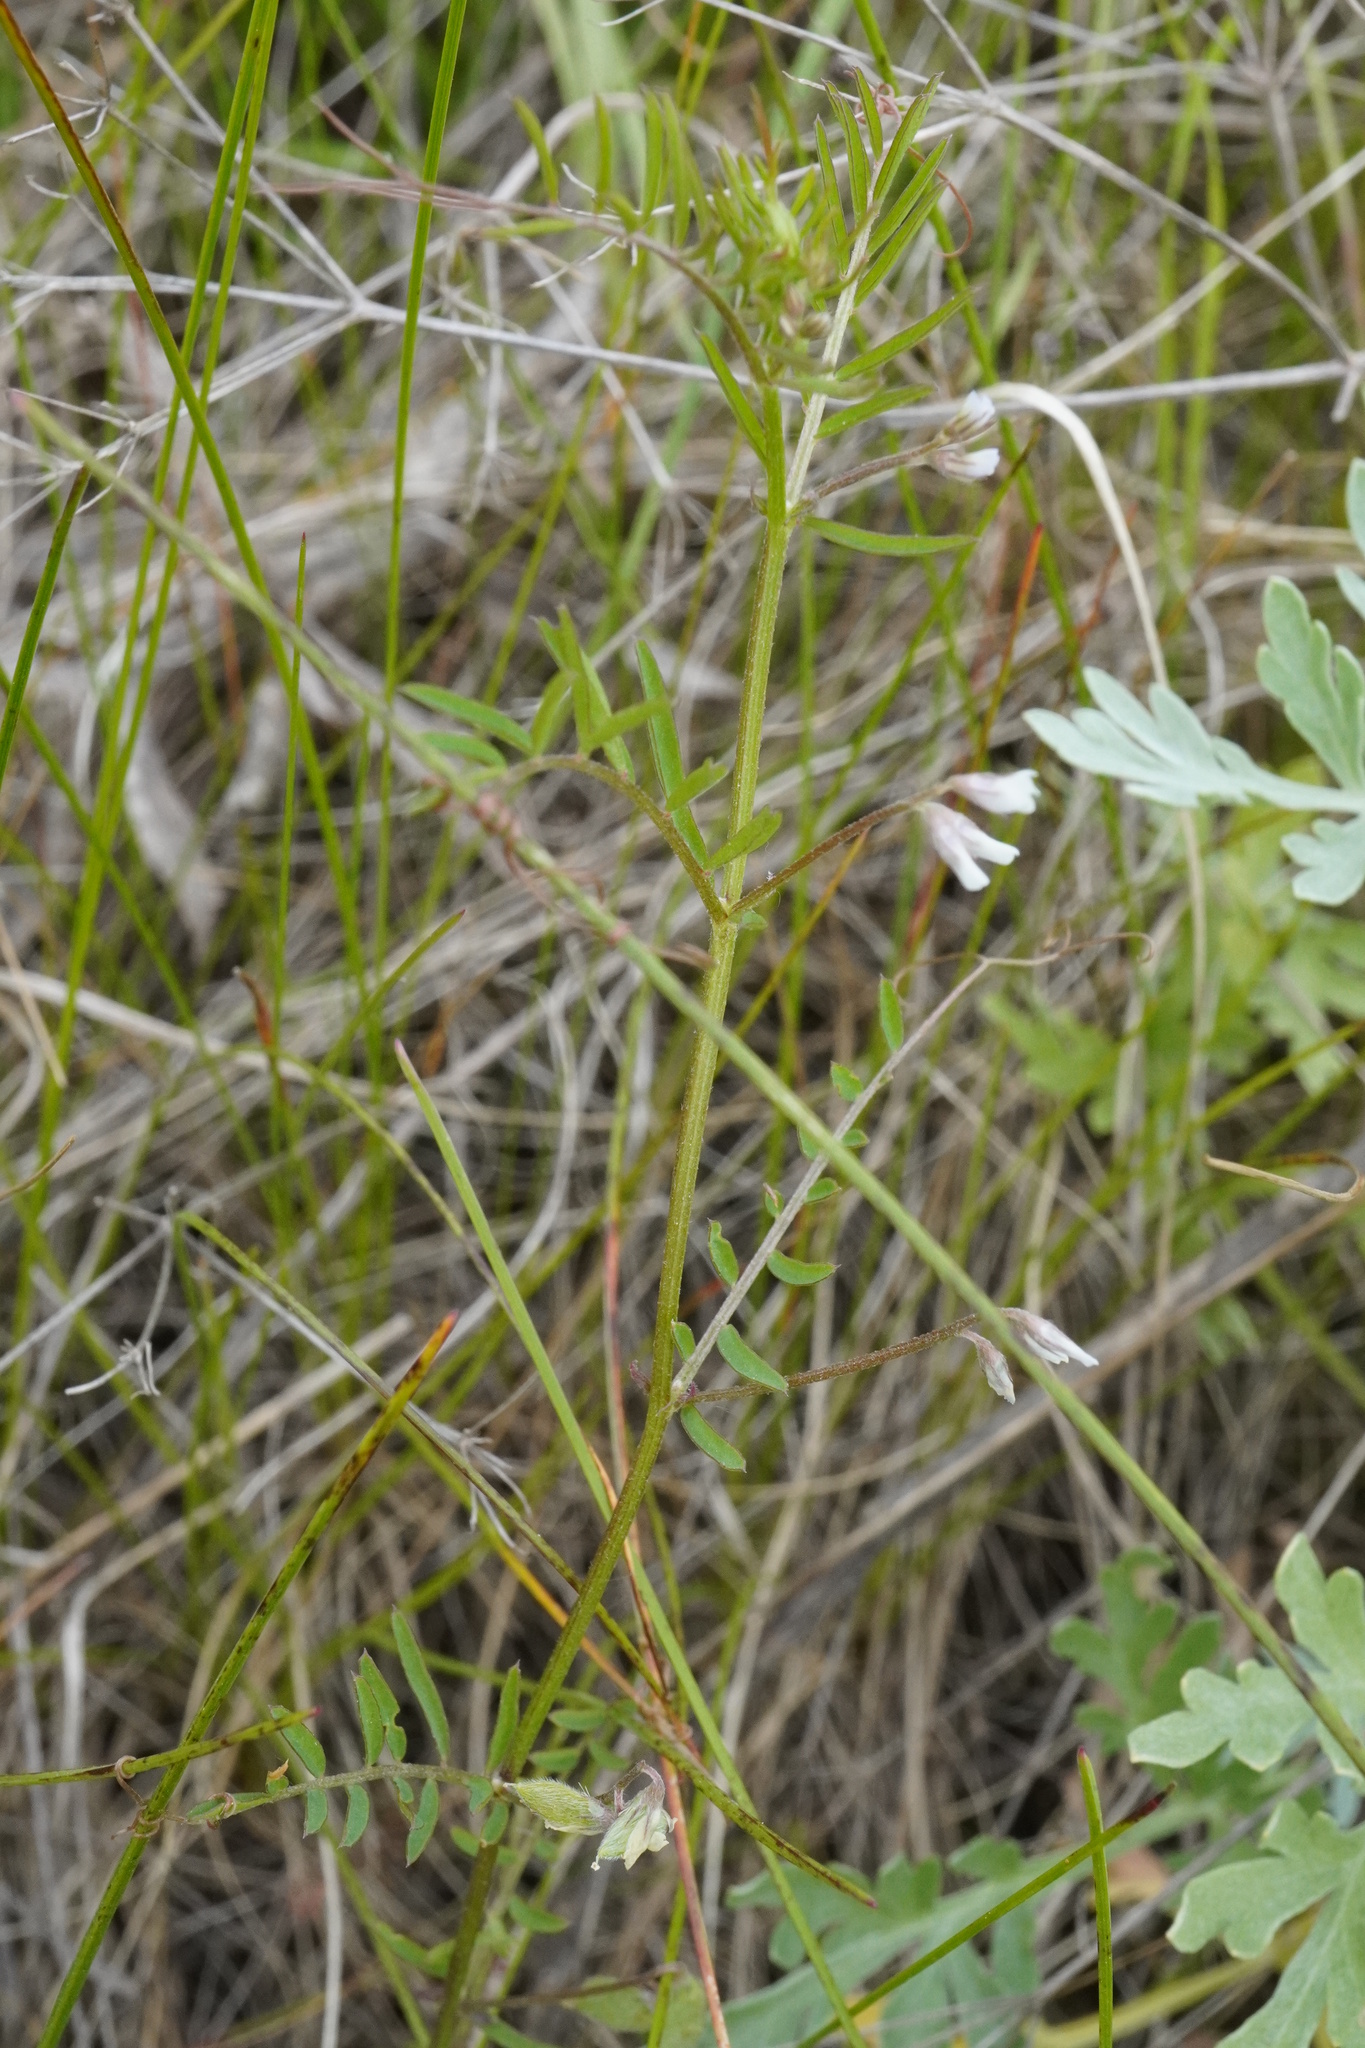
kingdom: Plantae
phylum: Tracheophyta
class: Magnoliopsida
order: Fabales
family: Fabaceae
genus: Vicia
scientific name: Vicia hirsuta
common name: Tiny vetch
